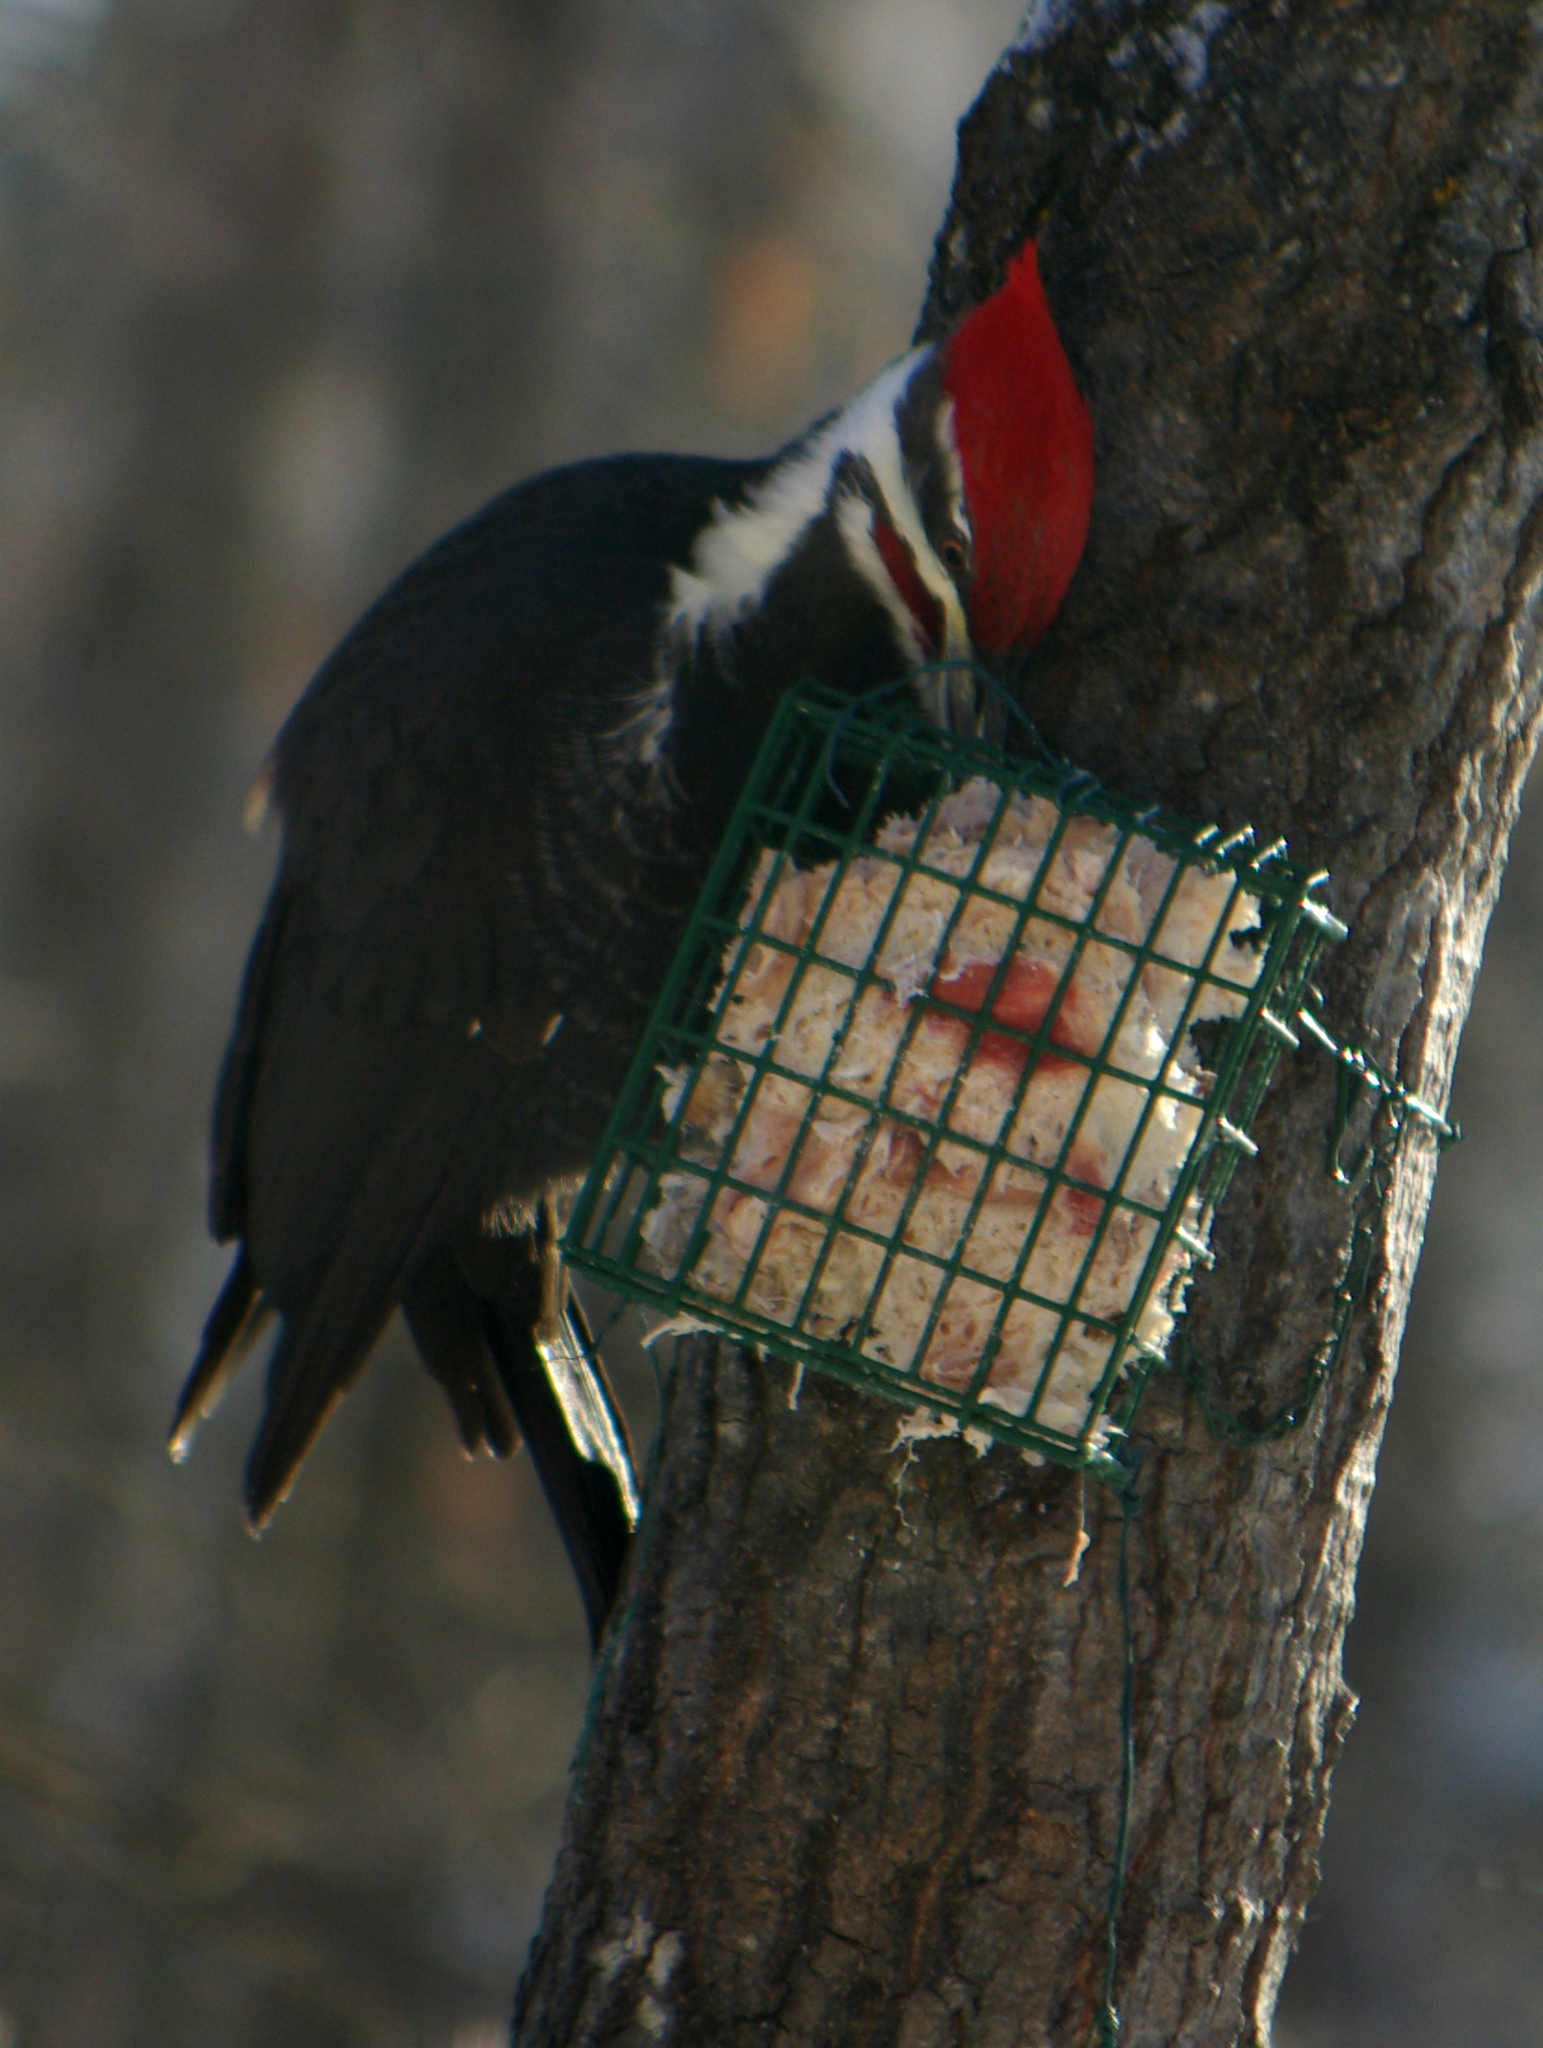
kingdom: Animalia
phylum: Chordata
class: Aves
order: Piciformes
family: Picidae
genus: Dryocopus
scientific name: Dryocopus pileatus
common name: Pileated woodpecker
